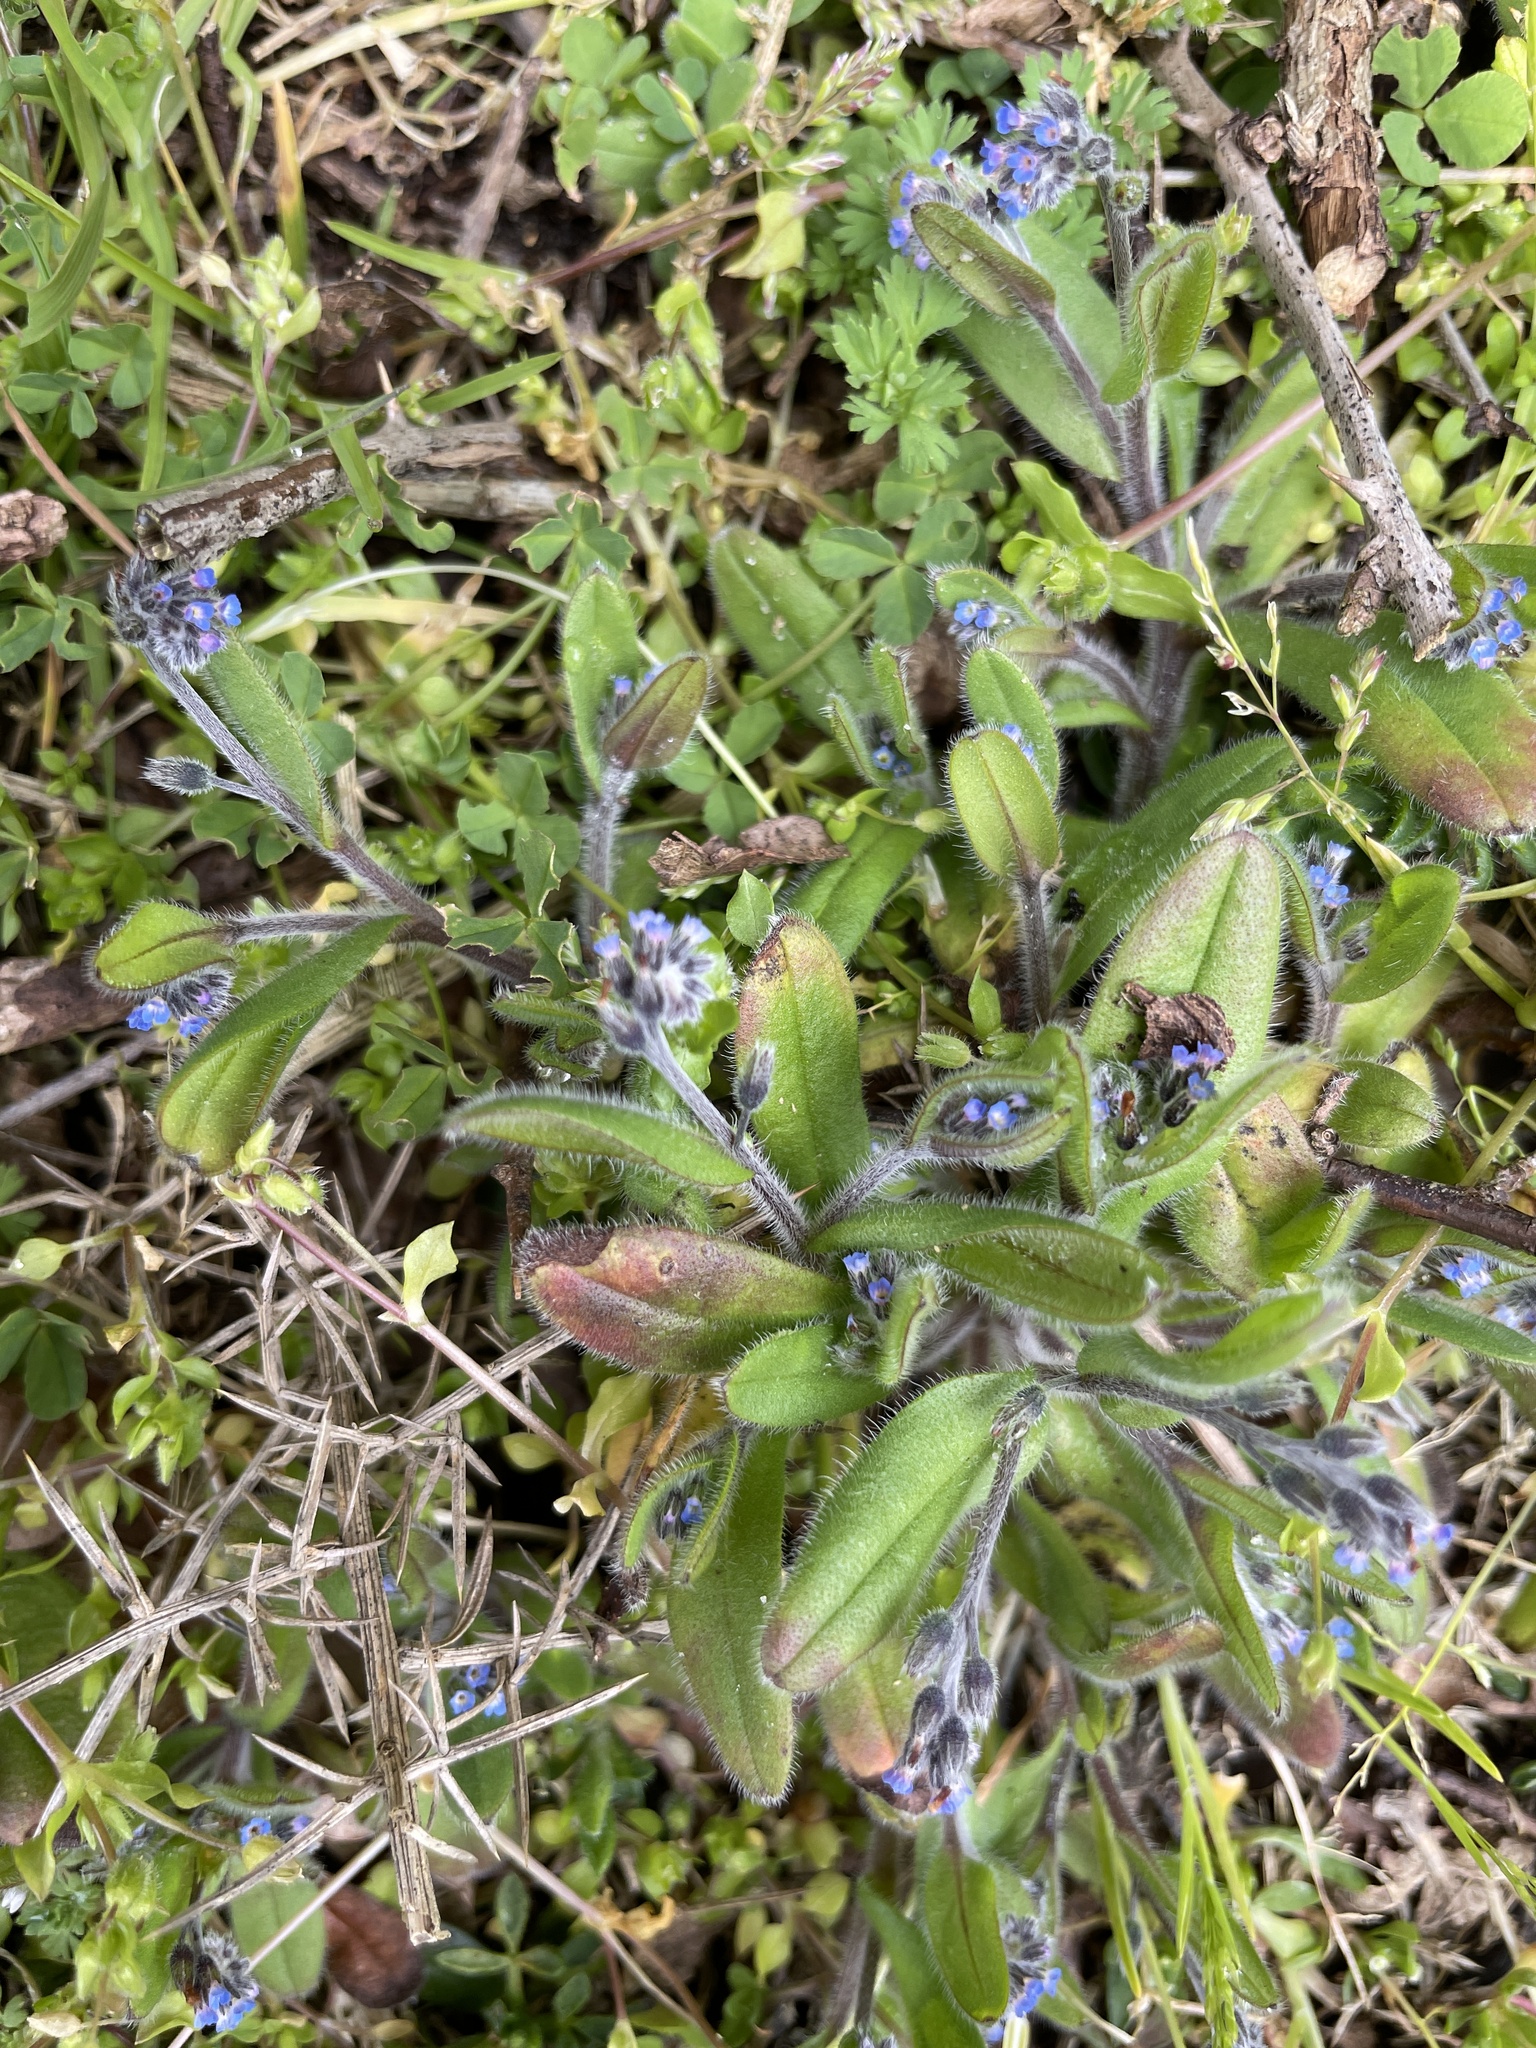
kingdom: Plantae
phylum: Tracheophyta
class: Magnoliopsida
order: Boraginales
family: Boraginaceae
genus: Myosotis
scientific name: Myosotis ramosissima
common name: Early forget-me-not
